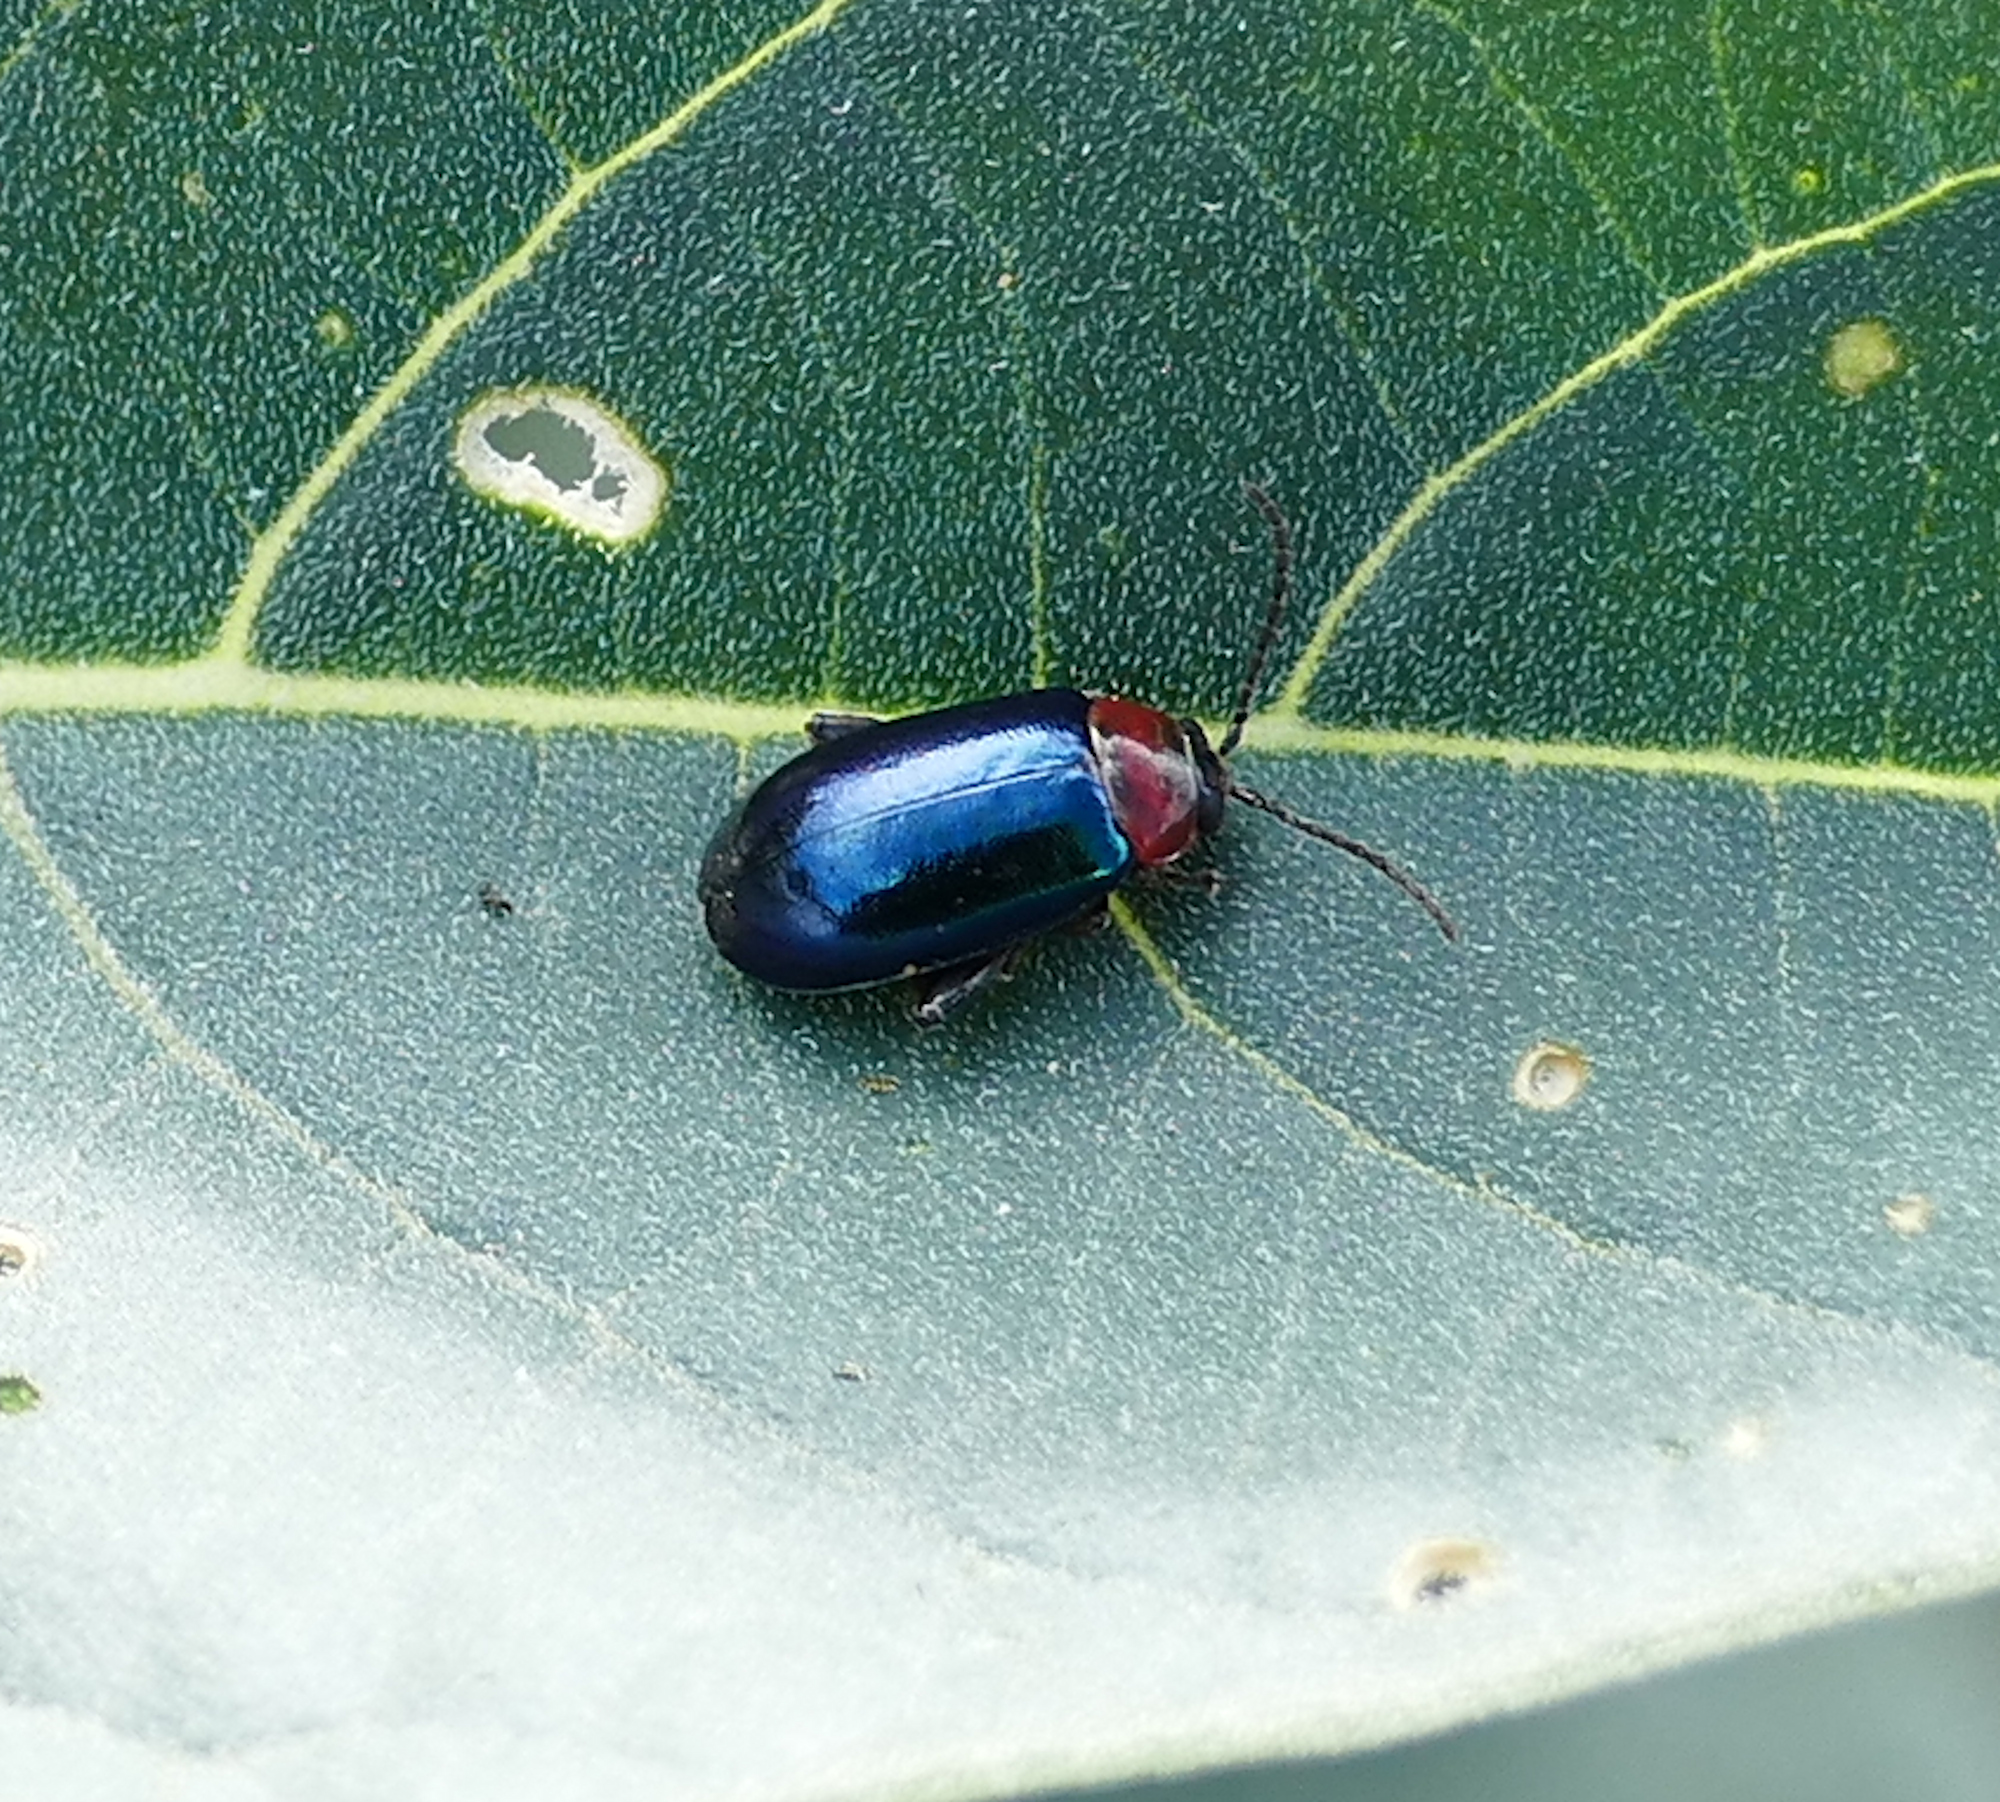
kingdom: Animalia
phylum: Arthropoda
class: Insecta
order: Coleoptera
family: Chrysomelidae
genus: Disonycha
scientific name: Disonycha politula
